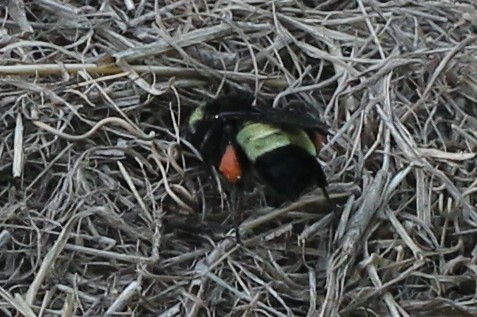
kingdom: Animalia
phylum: Arthropoda
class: Insecta
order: Hymenoptera
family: Apidae
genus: Bombus
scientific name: Bombus pensylvanicus
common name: Bumble bee
